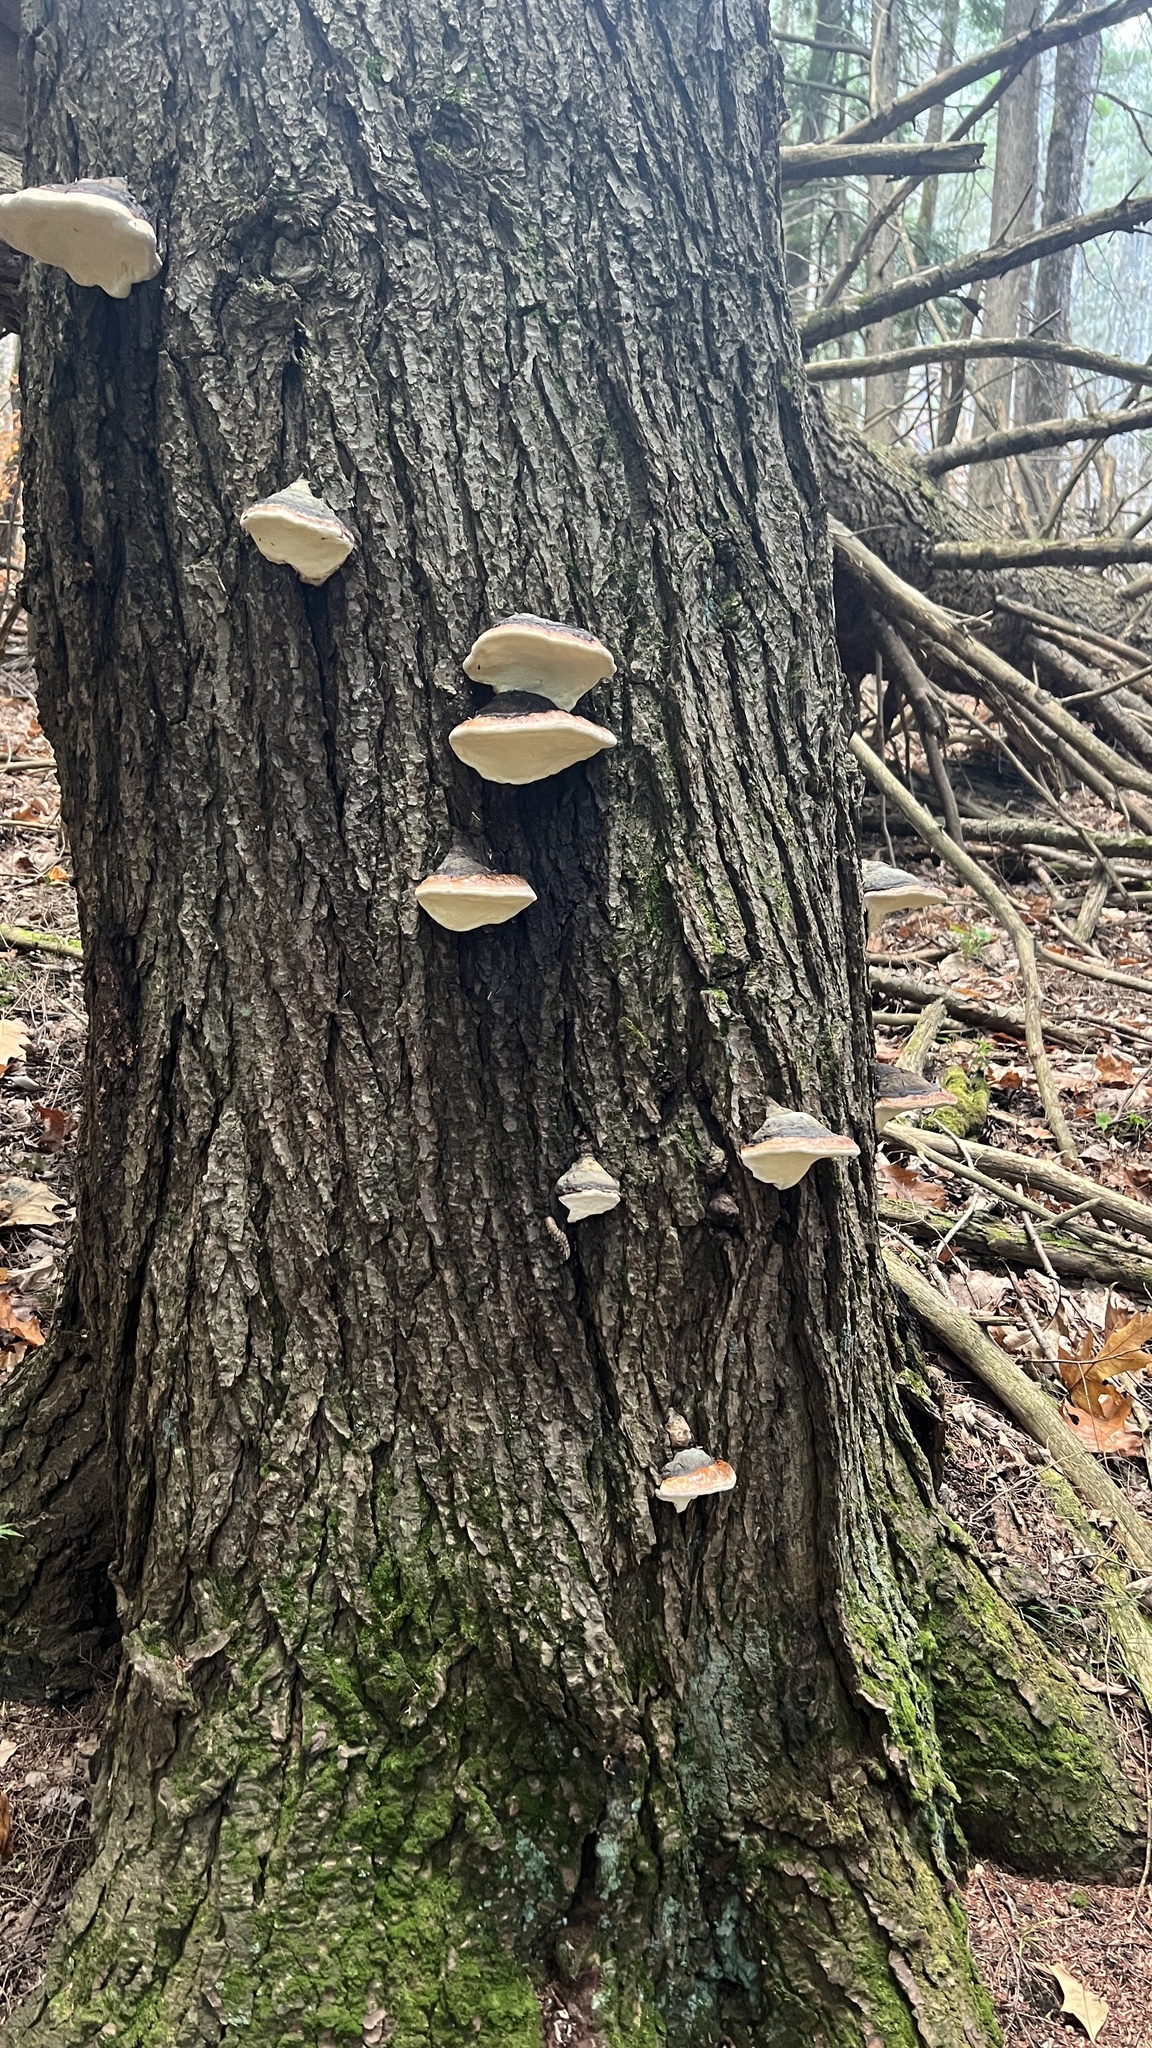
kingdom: Fungi
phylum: Basidiomycota
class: Agaricomycetes
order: Polyporales
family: Fomitopsidaceae
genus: Fomitopsis
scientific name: Fomitopsis mounceae
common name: Northern red belt
